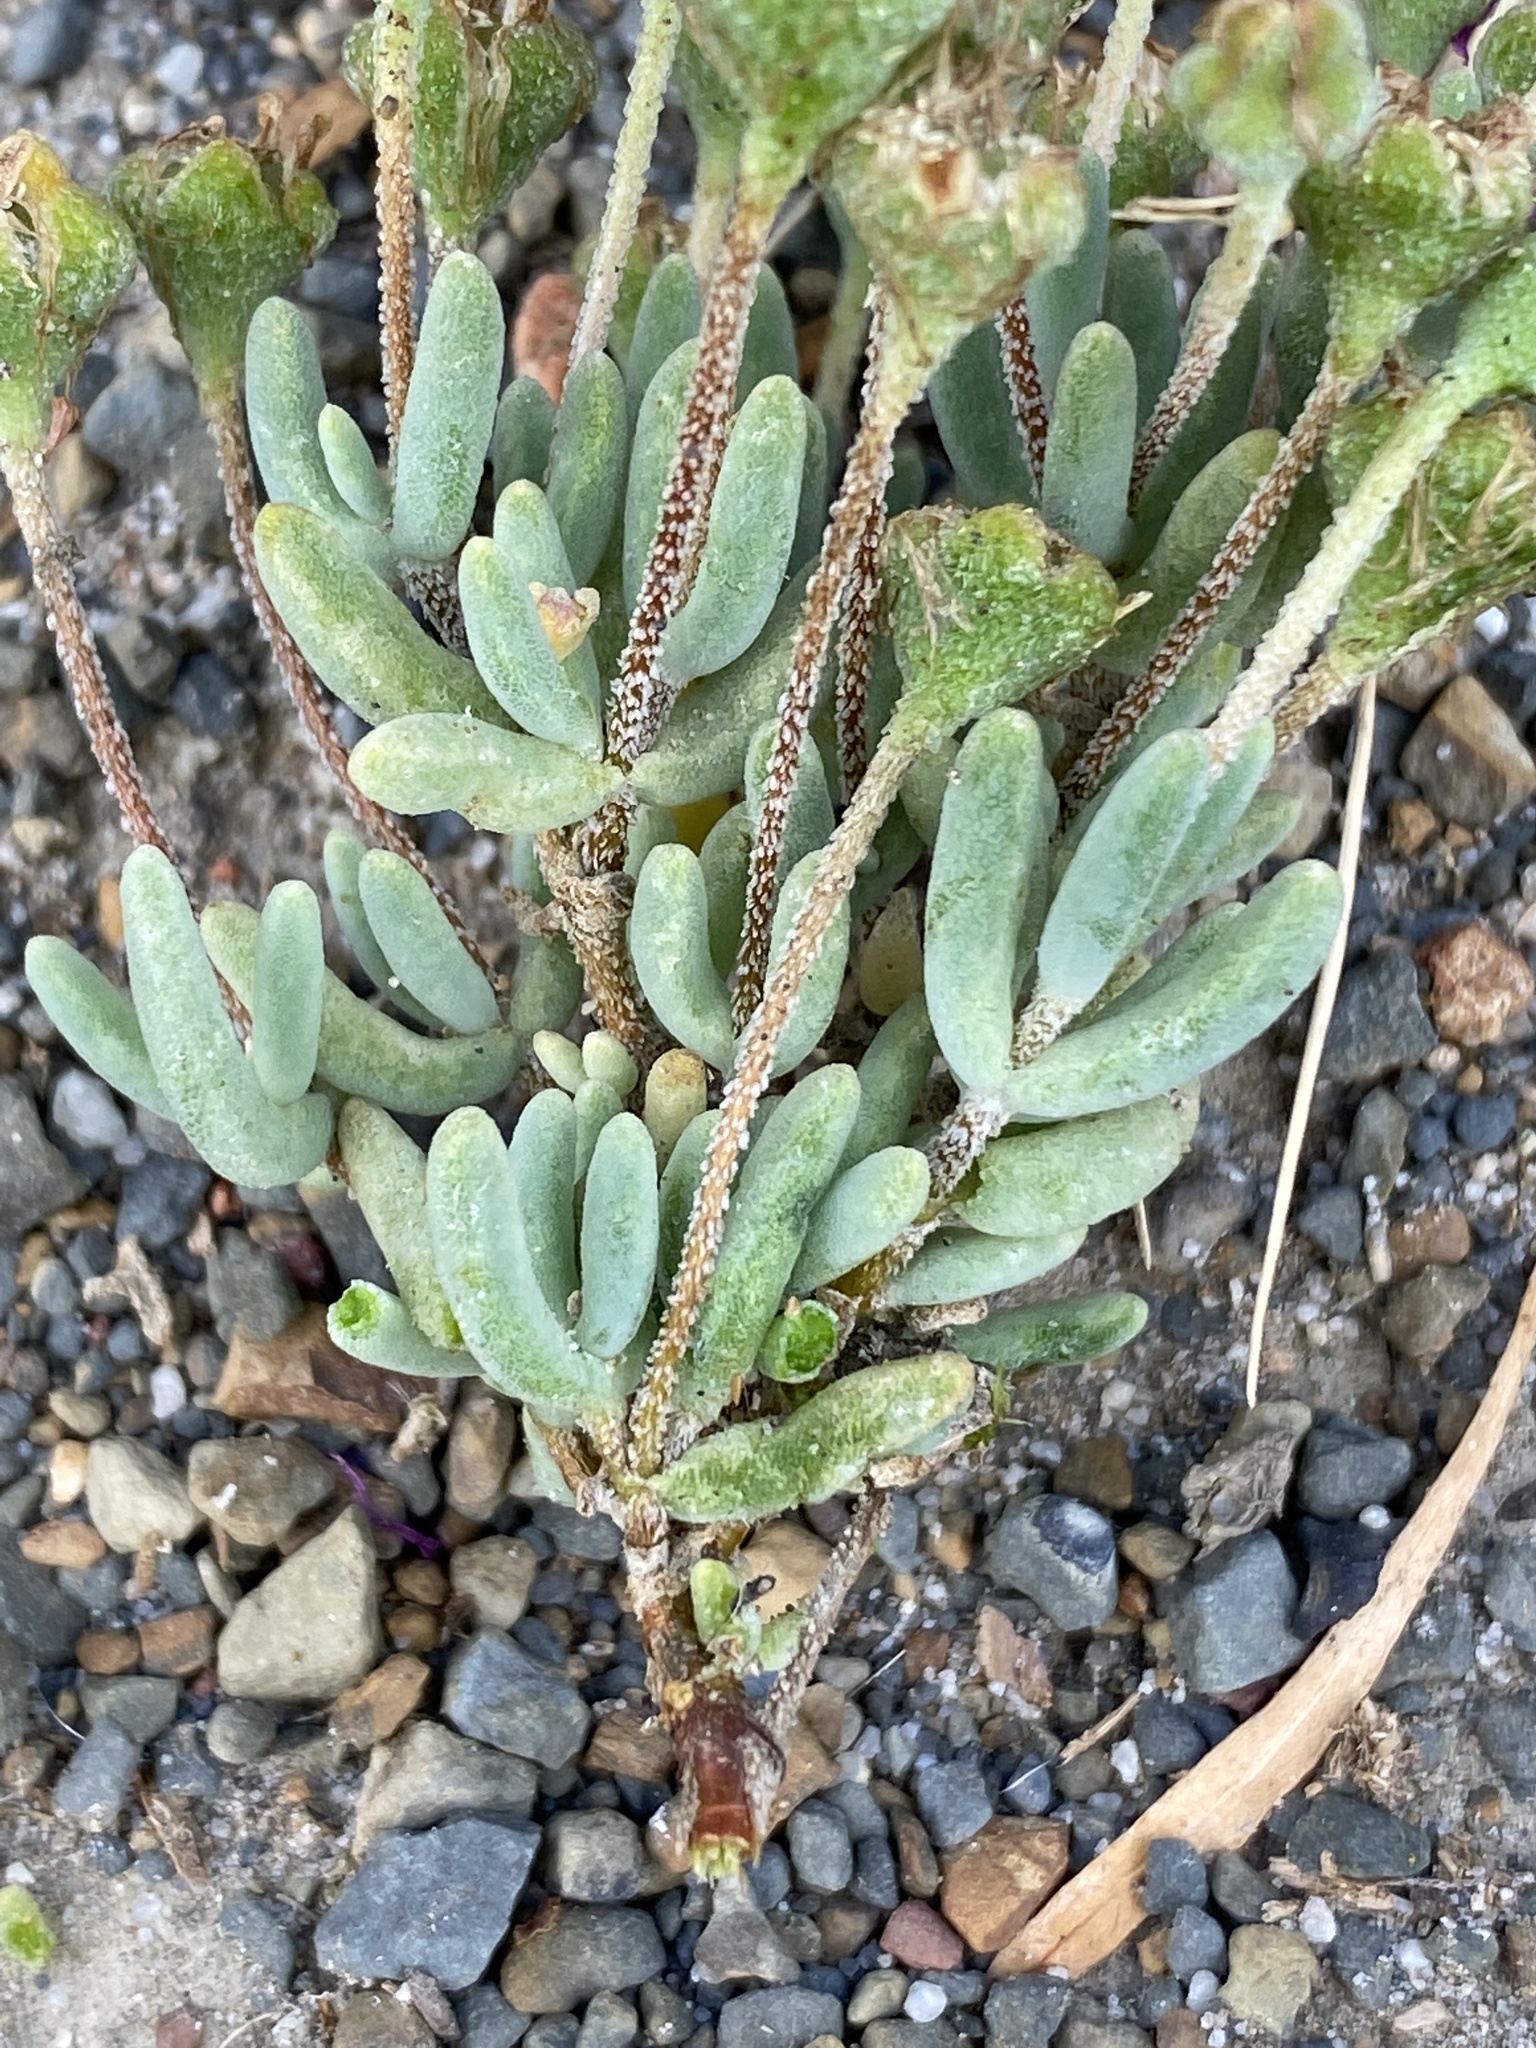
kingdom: Plantae
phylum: Tracheophyta
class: Magnoliopsida
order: Caryophyllales
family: Aizoaceae
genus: Drosanthemum
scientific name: Drosanthemum tuberculiferum
